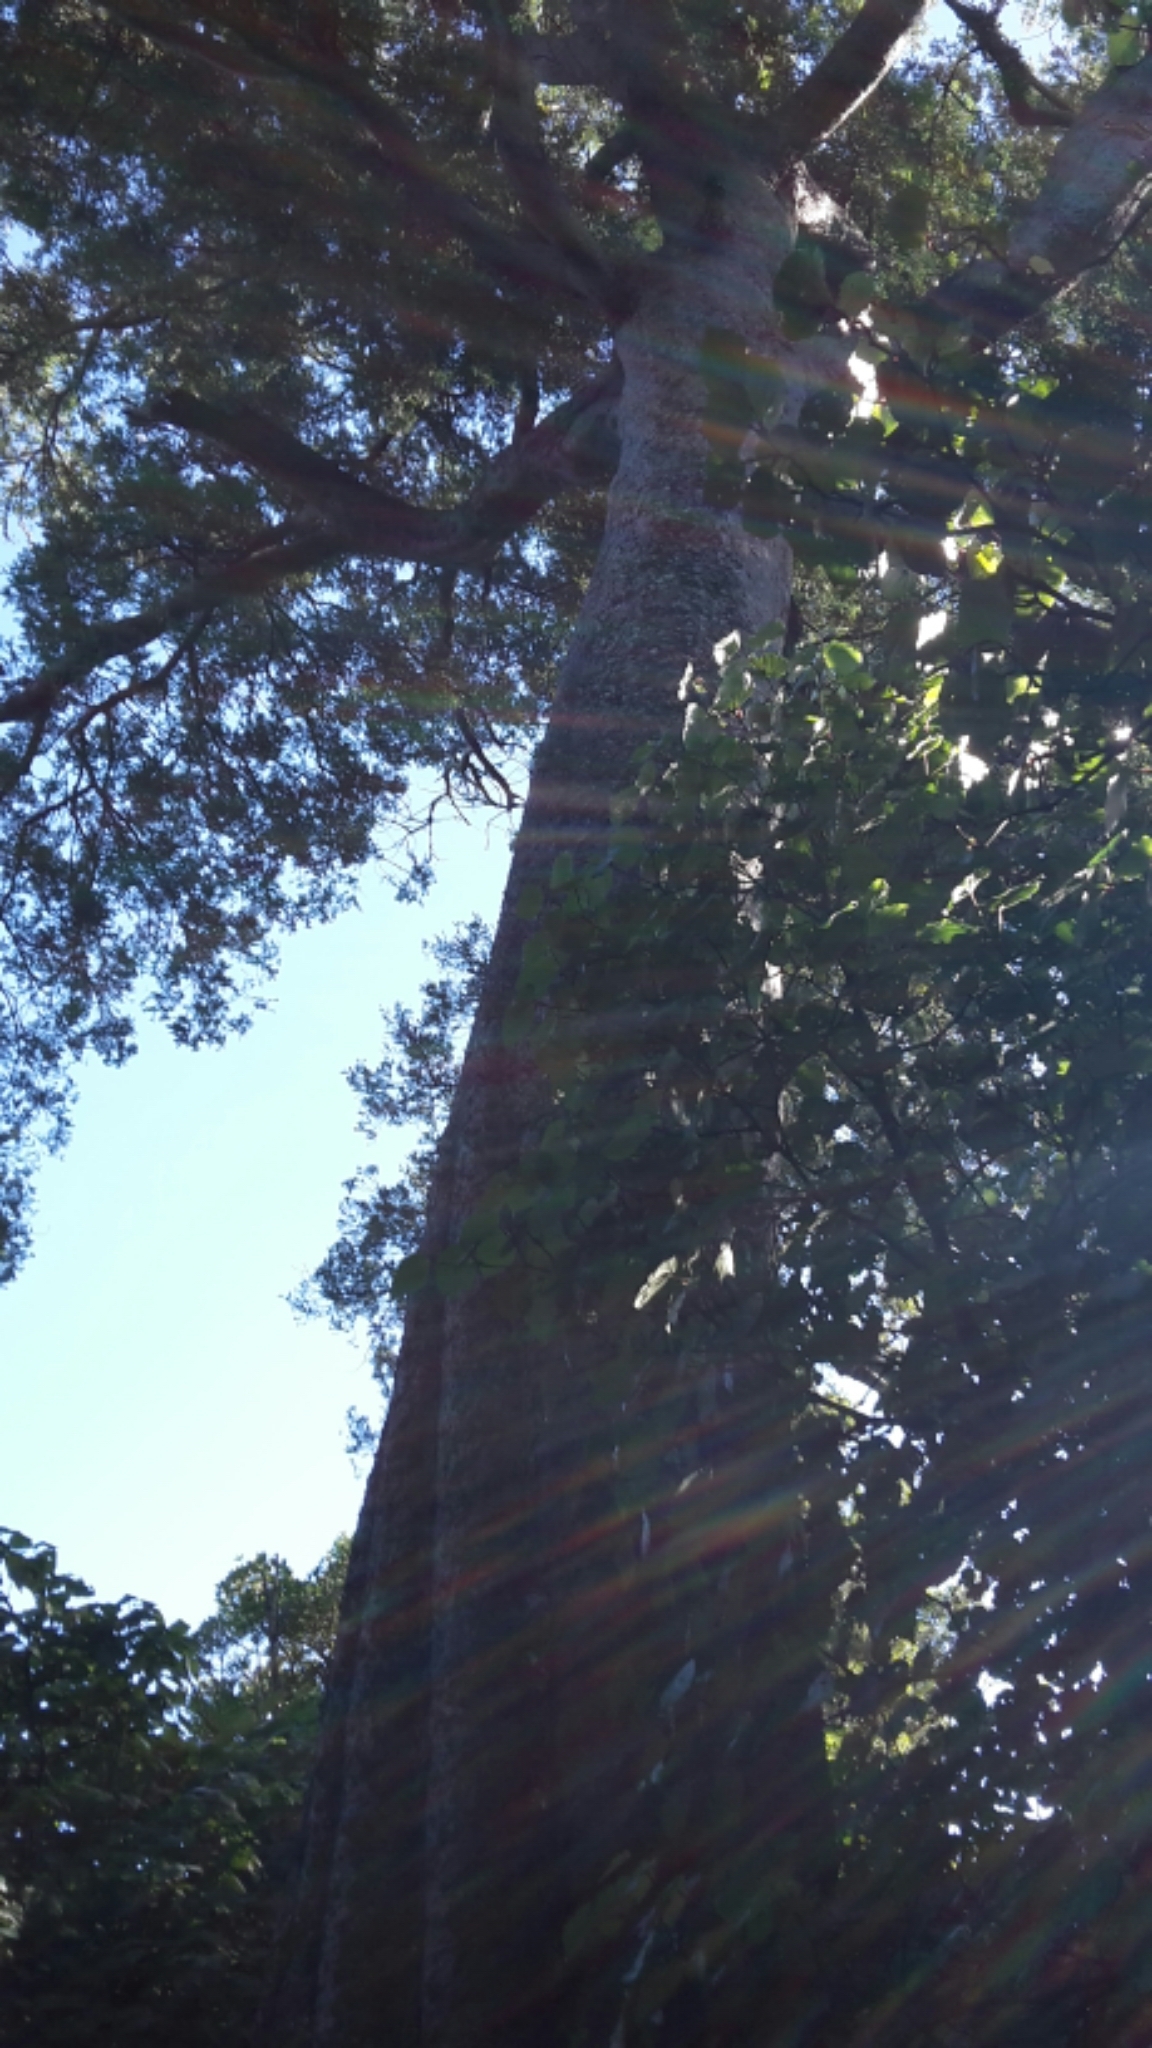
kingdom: Plantae
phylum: Tracheophyta
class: Pinopsida
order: Pinales
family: Podocarpaceae
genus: Prumnopitys
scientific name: Prumnopitys taxifolia
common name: Matai
